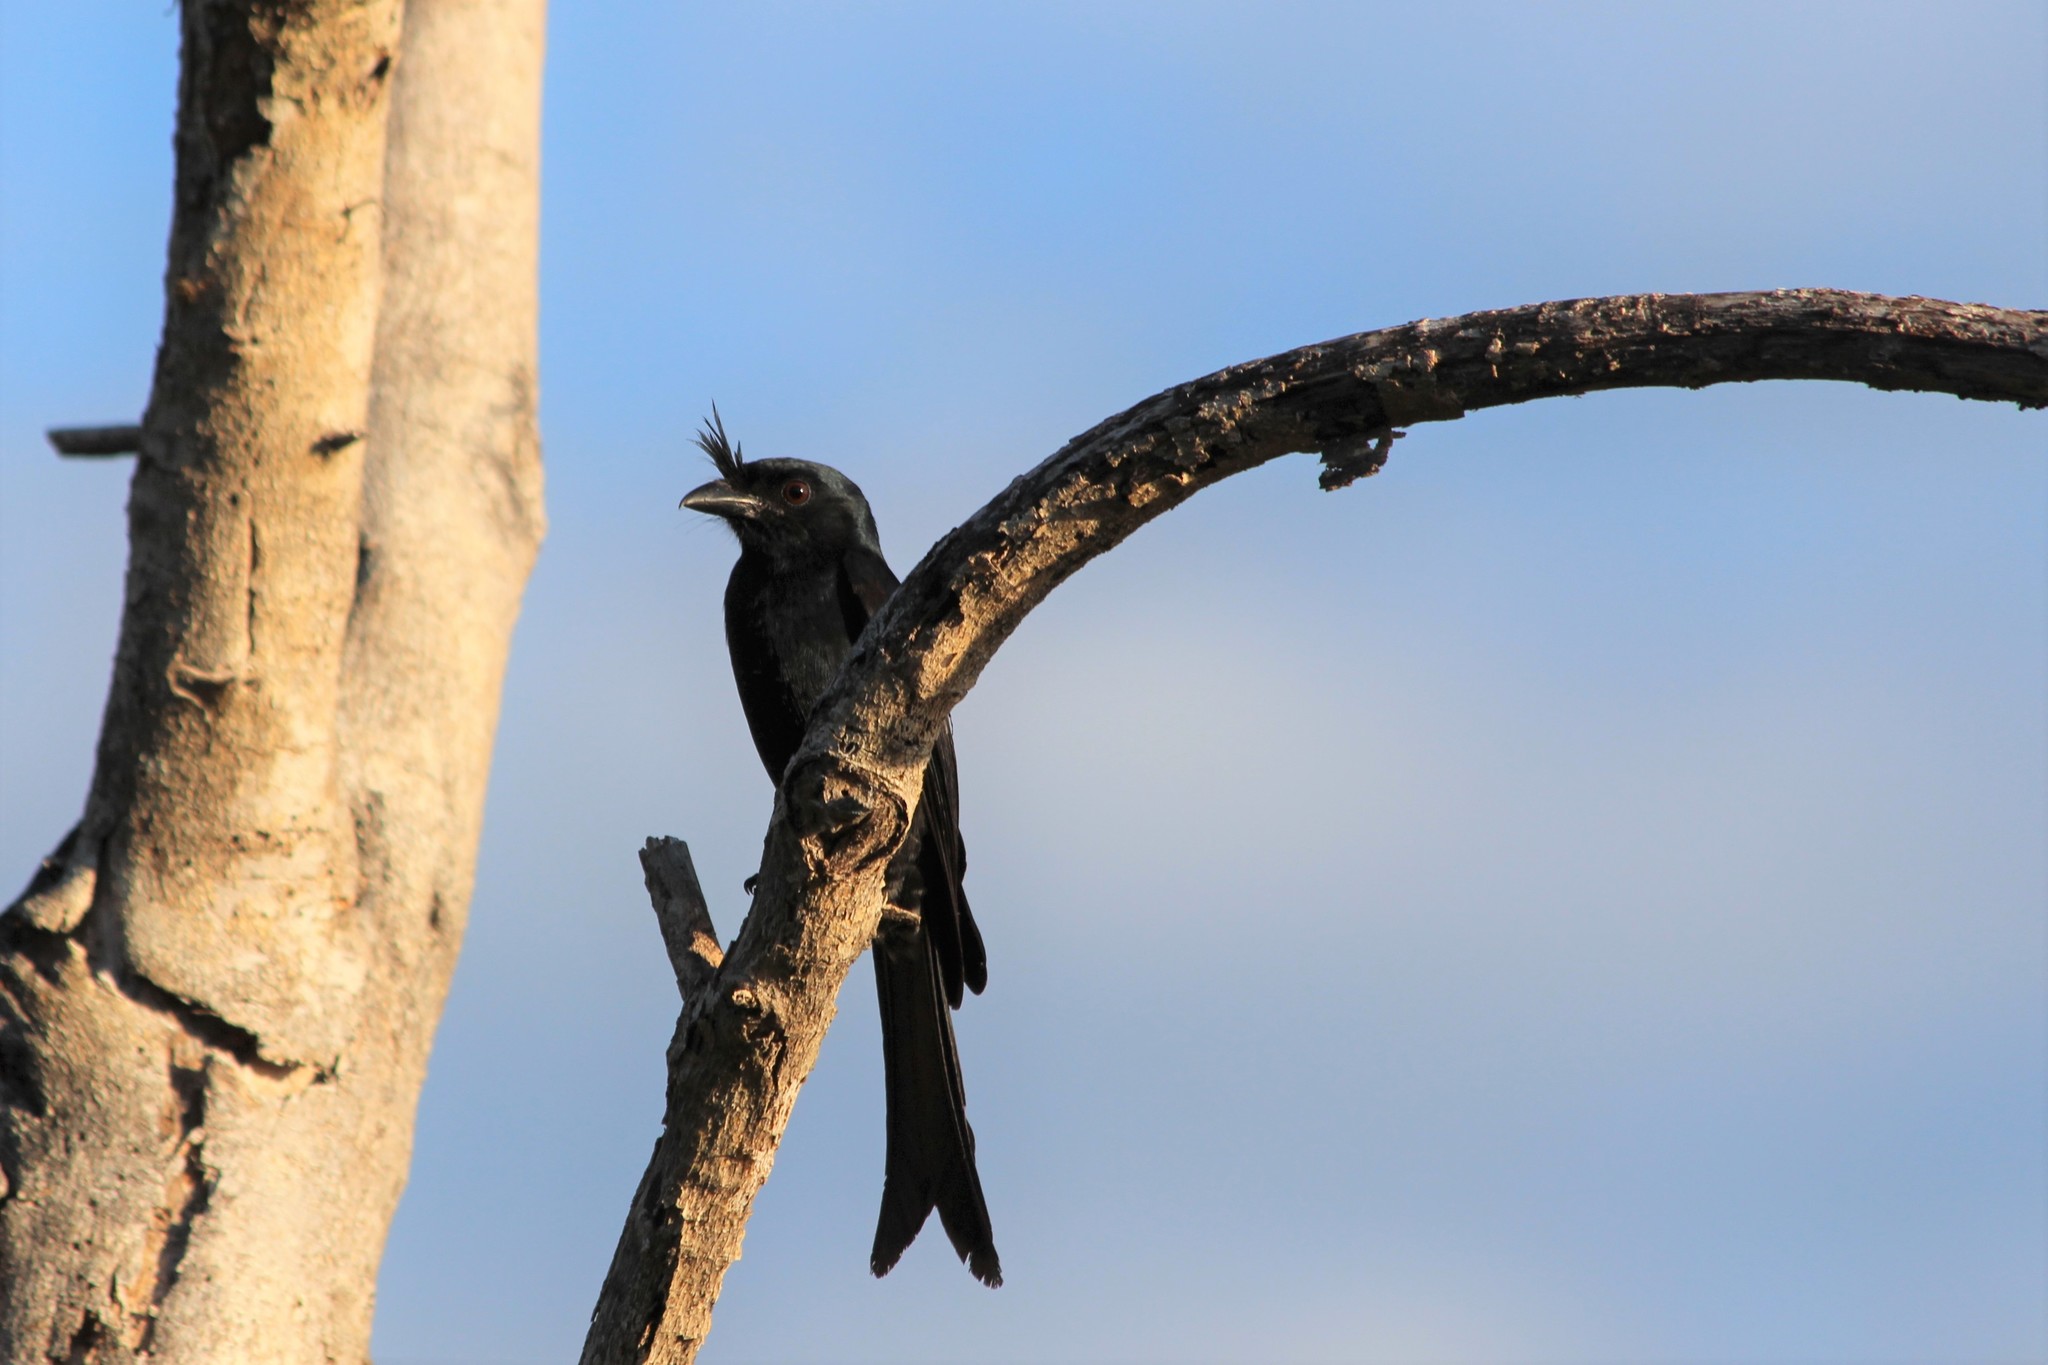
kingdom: Animalia
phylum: Chordata
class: Aves
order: Passeriformes
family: Dicruridae
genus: Dicrurus
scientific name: Dicrurus forficatus
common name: Crested drongo
